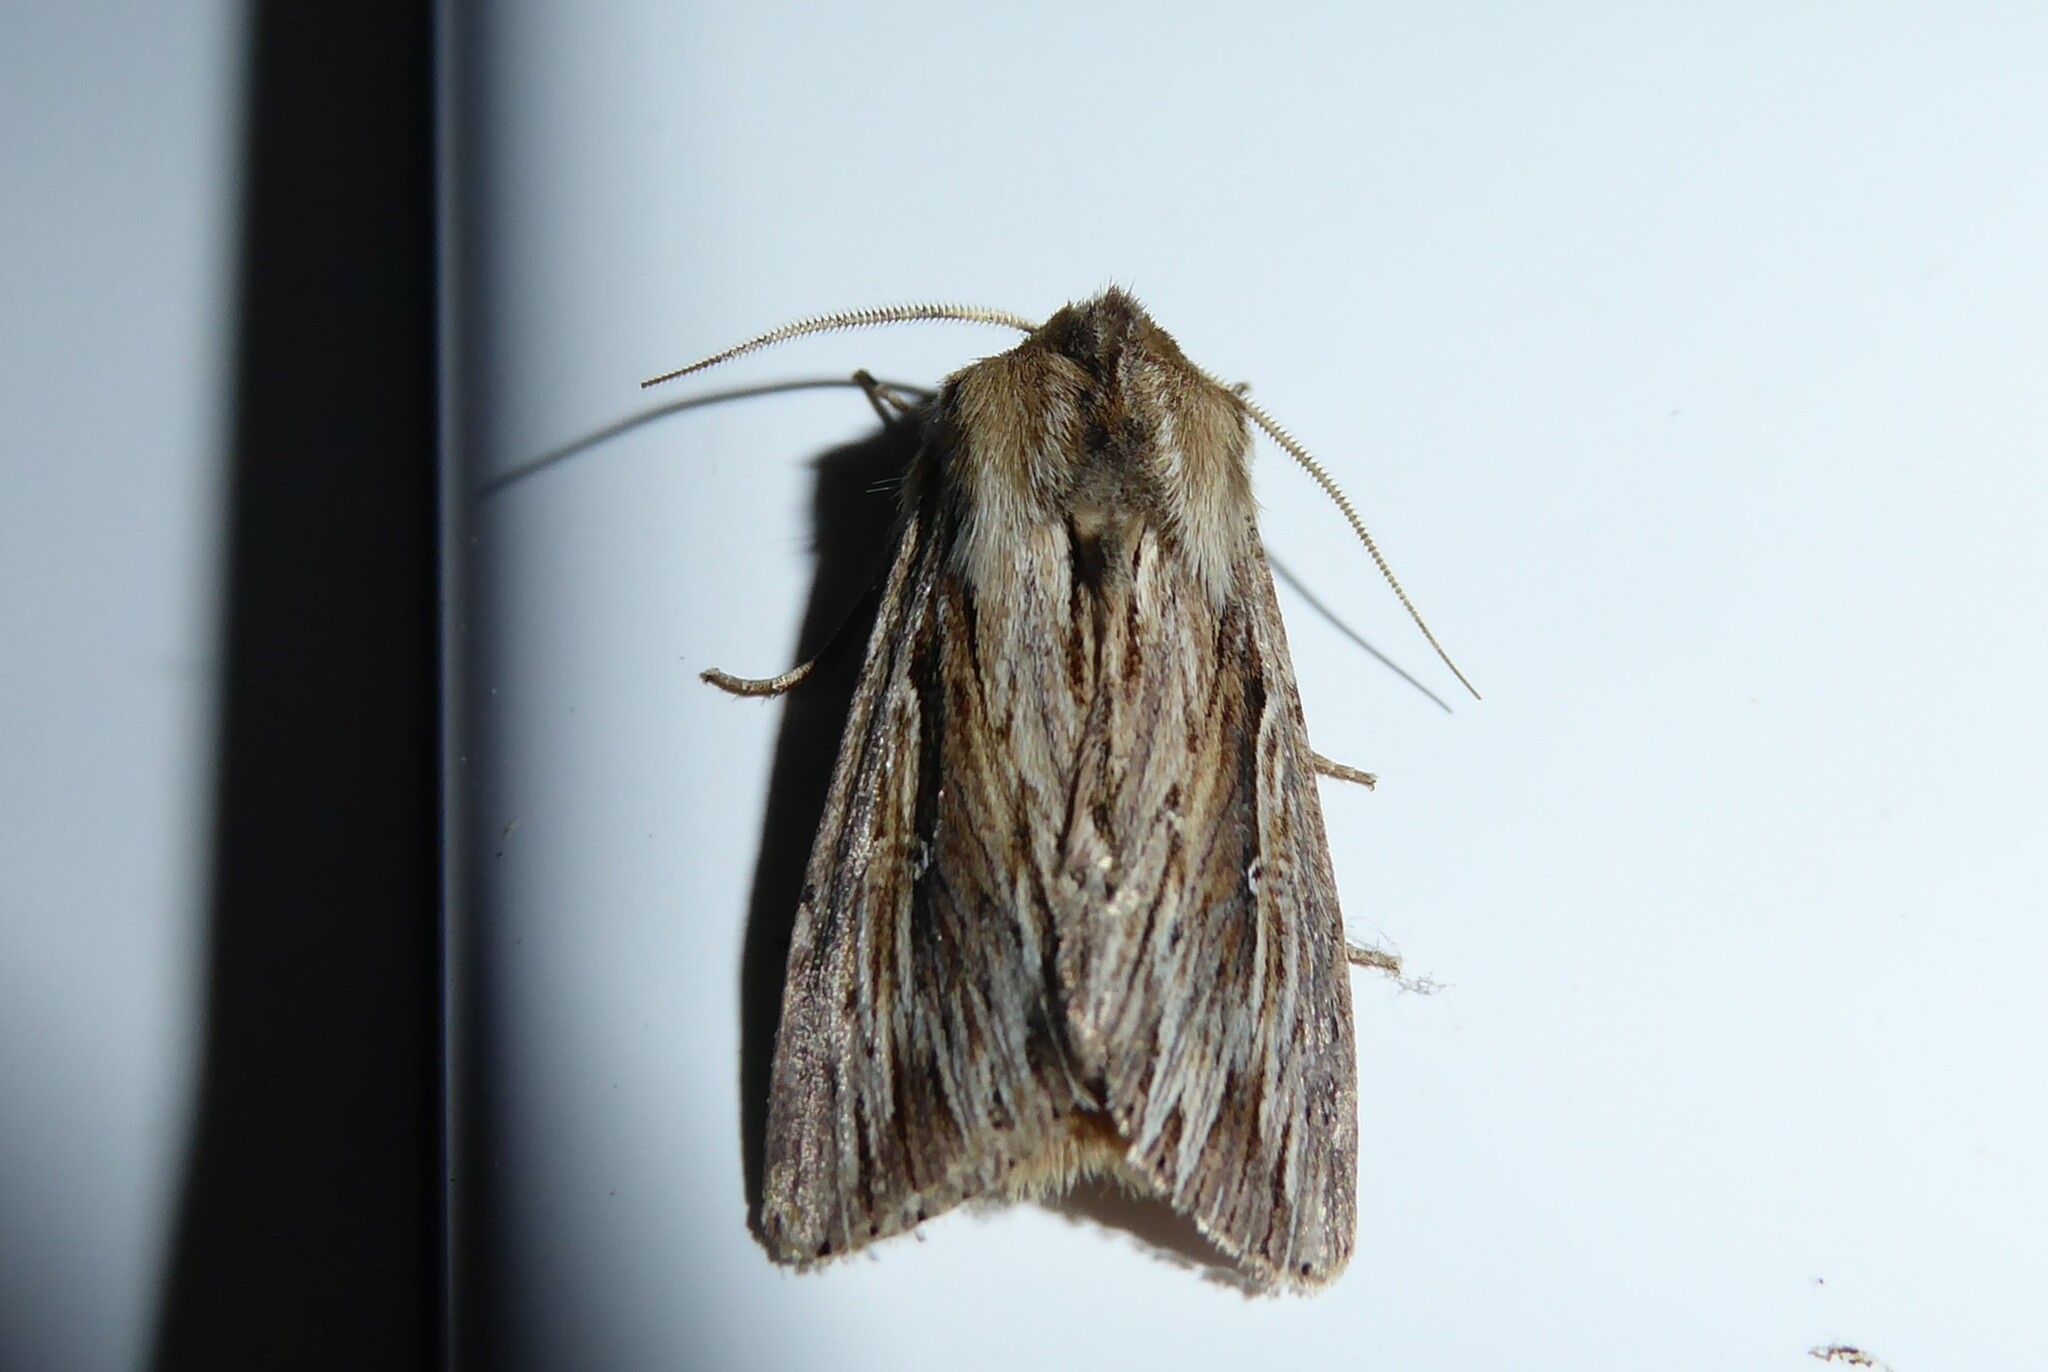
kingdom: Animalia
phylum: Arthropoda
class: Insecta
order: Lepidoptera
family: Noctuidae
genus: Persectania
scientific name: Persectania aversa
